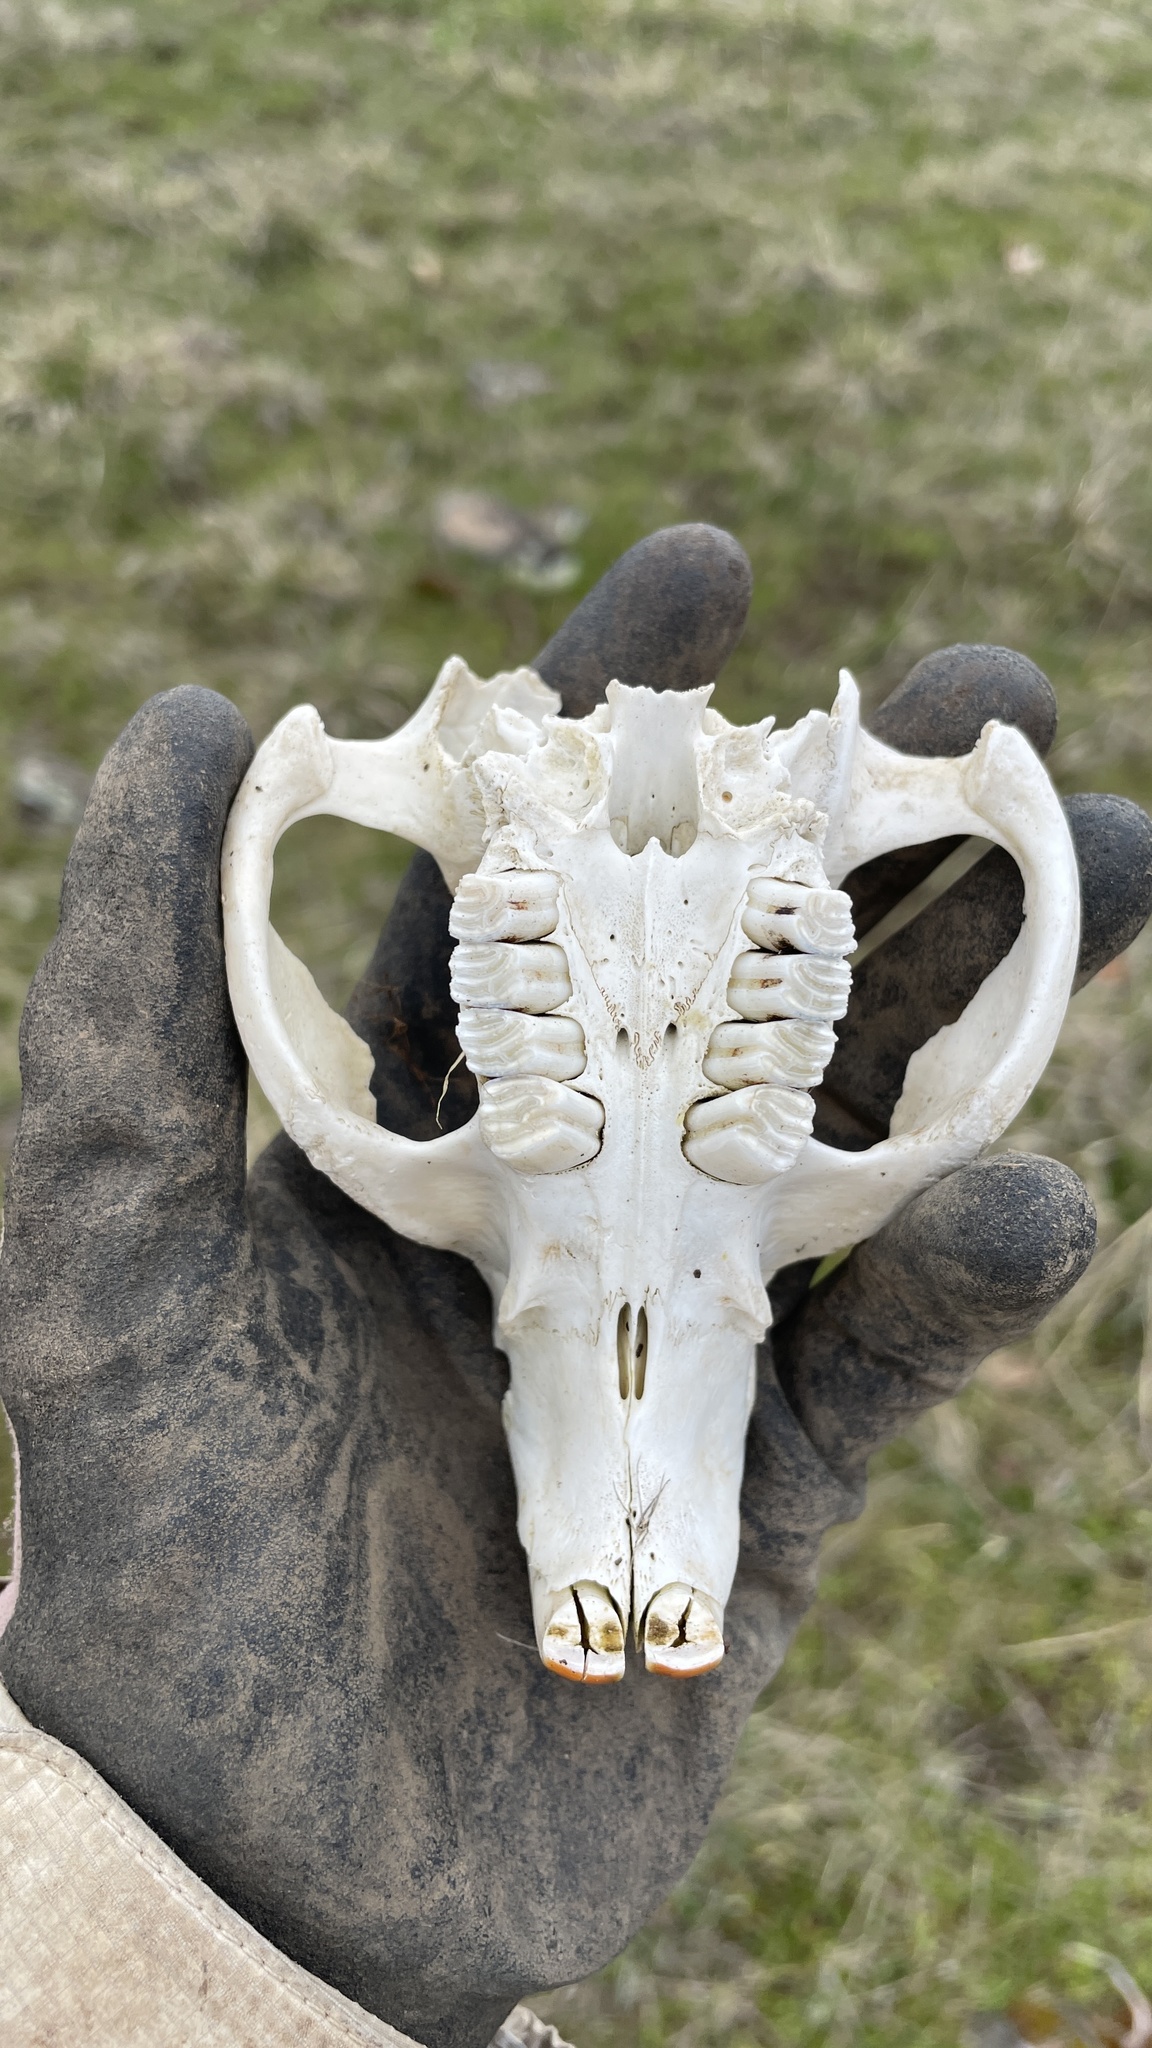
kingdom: Animalia
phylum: Chordata
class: Mammalia
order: Rodentia
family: Castoridae
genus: Castor
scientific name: Castor canadensis
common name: American beaver
